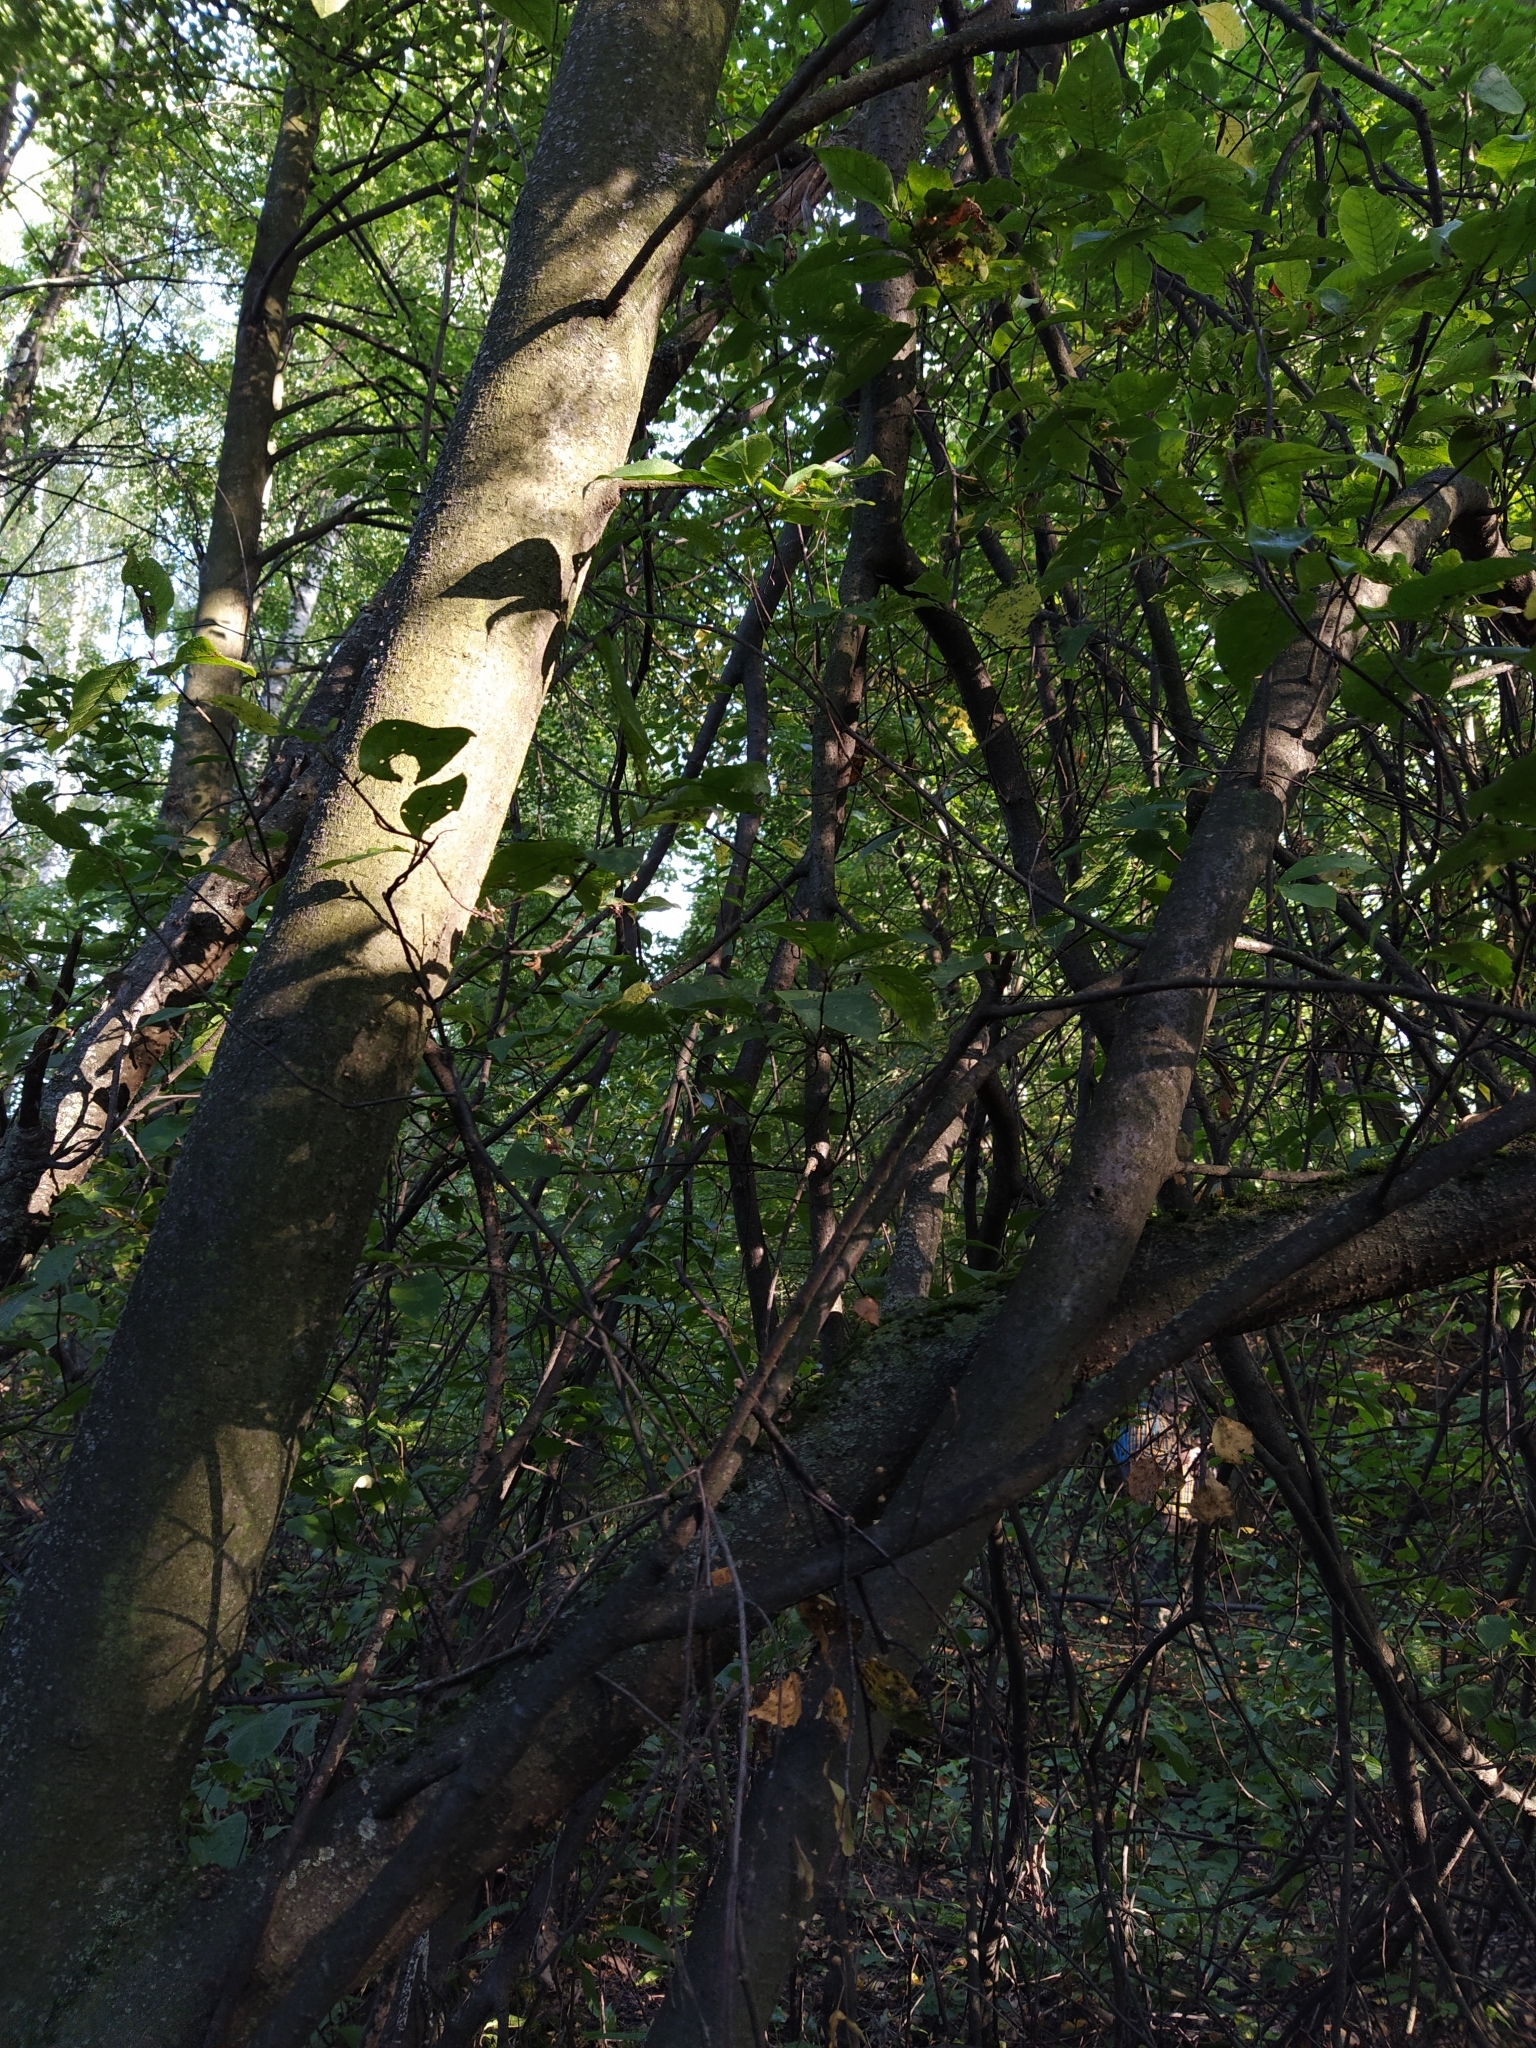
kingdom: Plantae
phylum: Tracheophyta
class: Magnoliopsida
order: Rosales
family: Rosaceae
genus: Prunus
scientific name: Prunus padus
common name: Bird cherry
